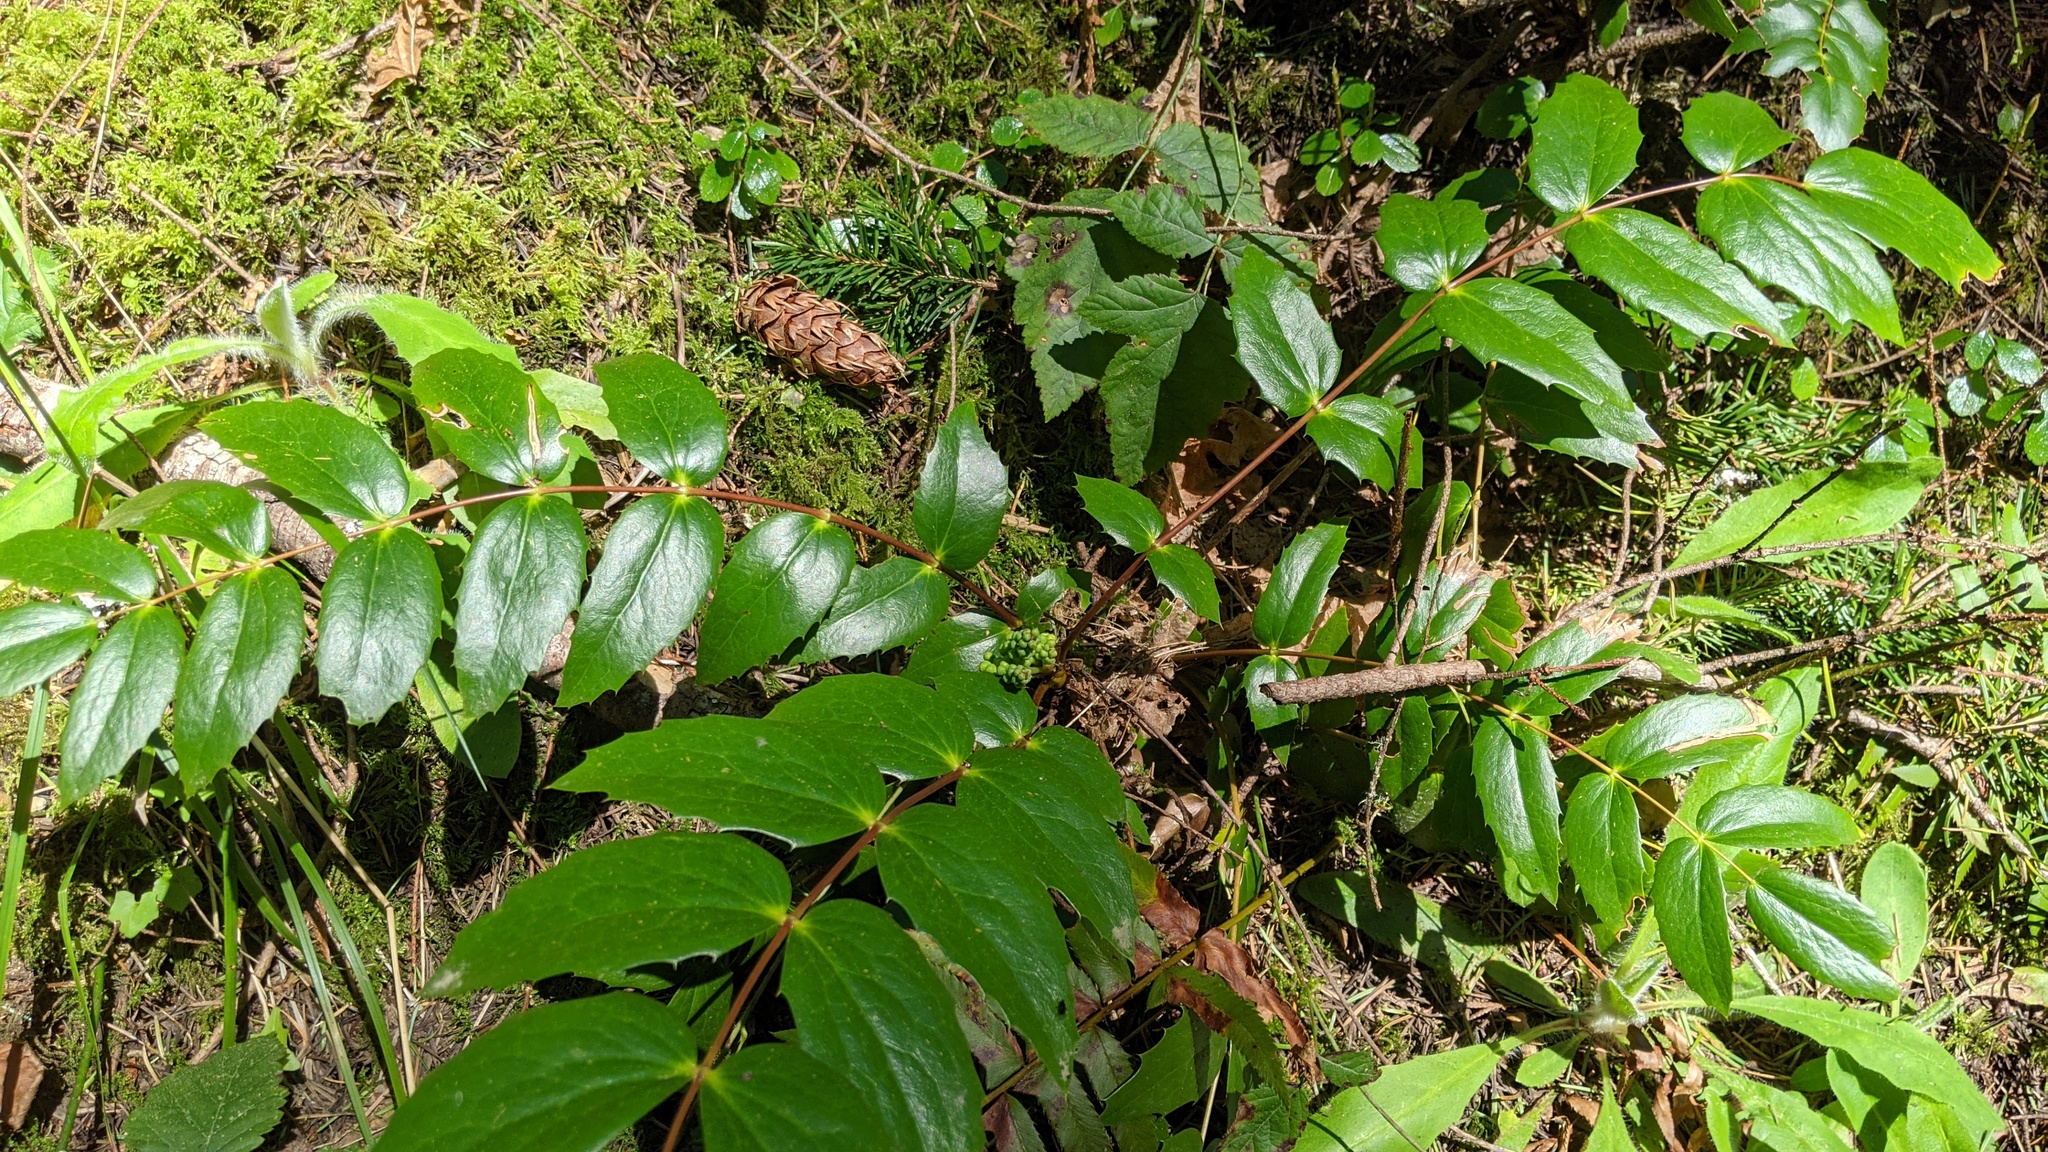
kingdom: Plantae
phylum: Tracheophyta
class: Magnoliopsida
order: Ranunculales
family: Berberidaceae
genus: Mahonia
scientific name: Mahonia nervosa
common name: Cascade oregon-grape
